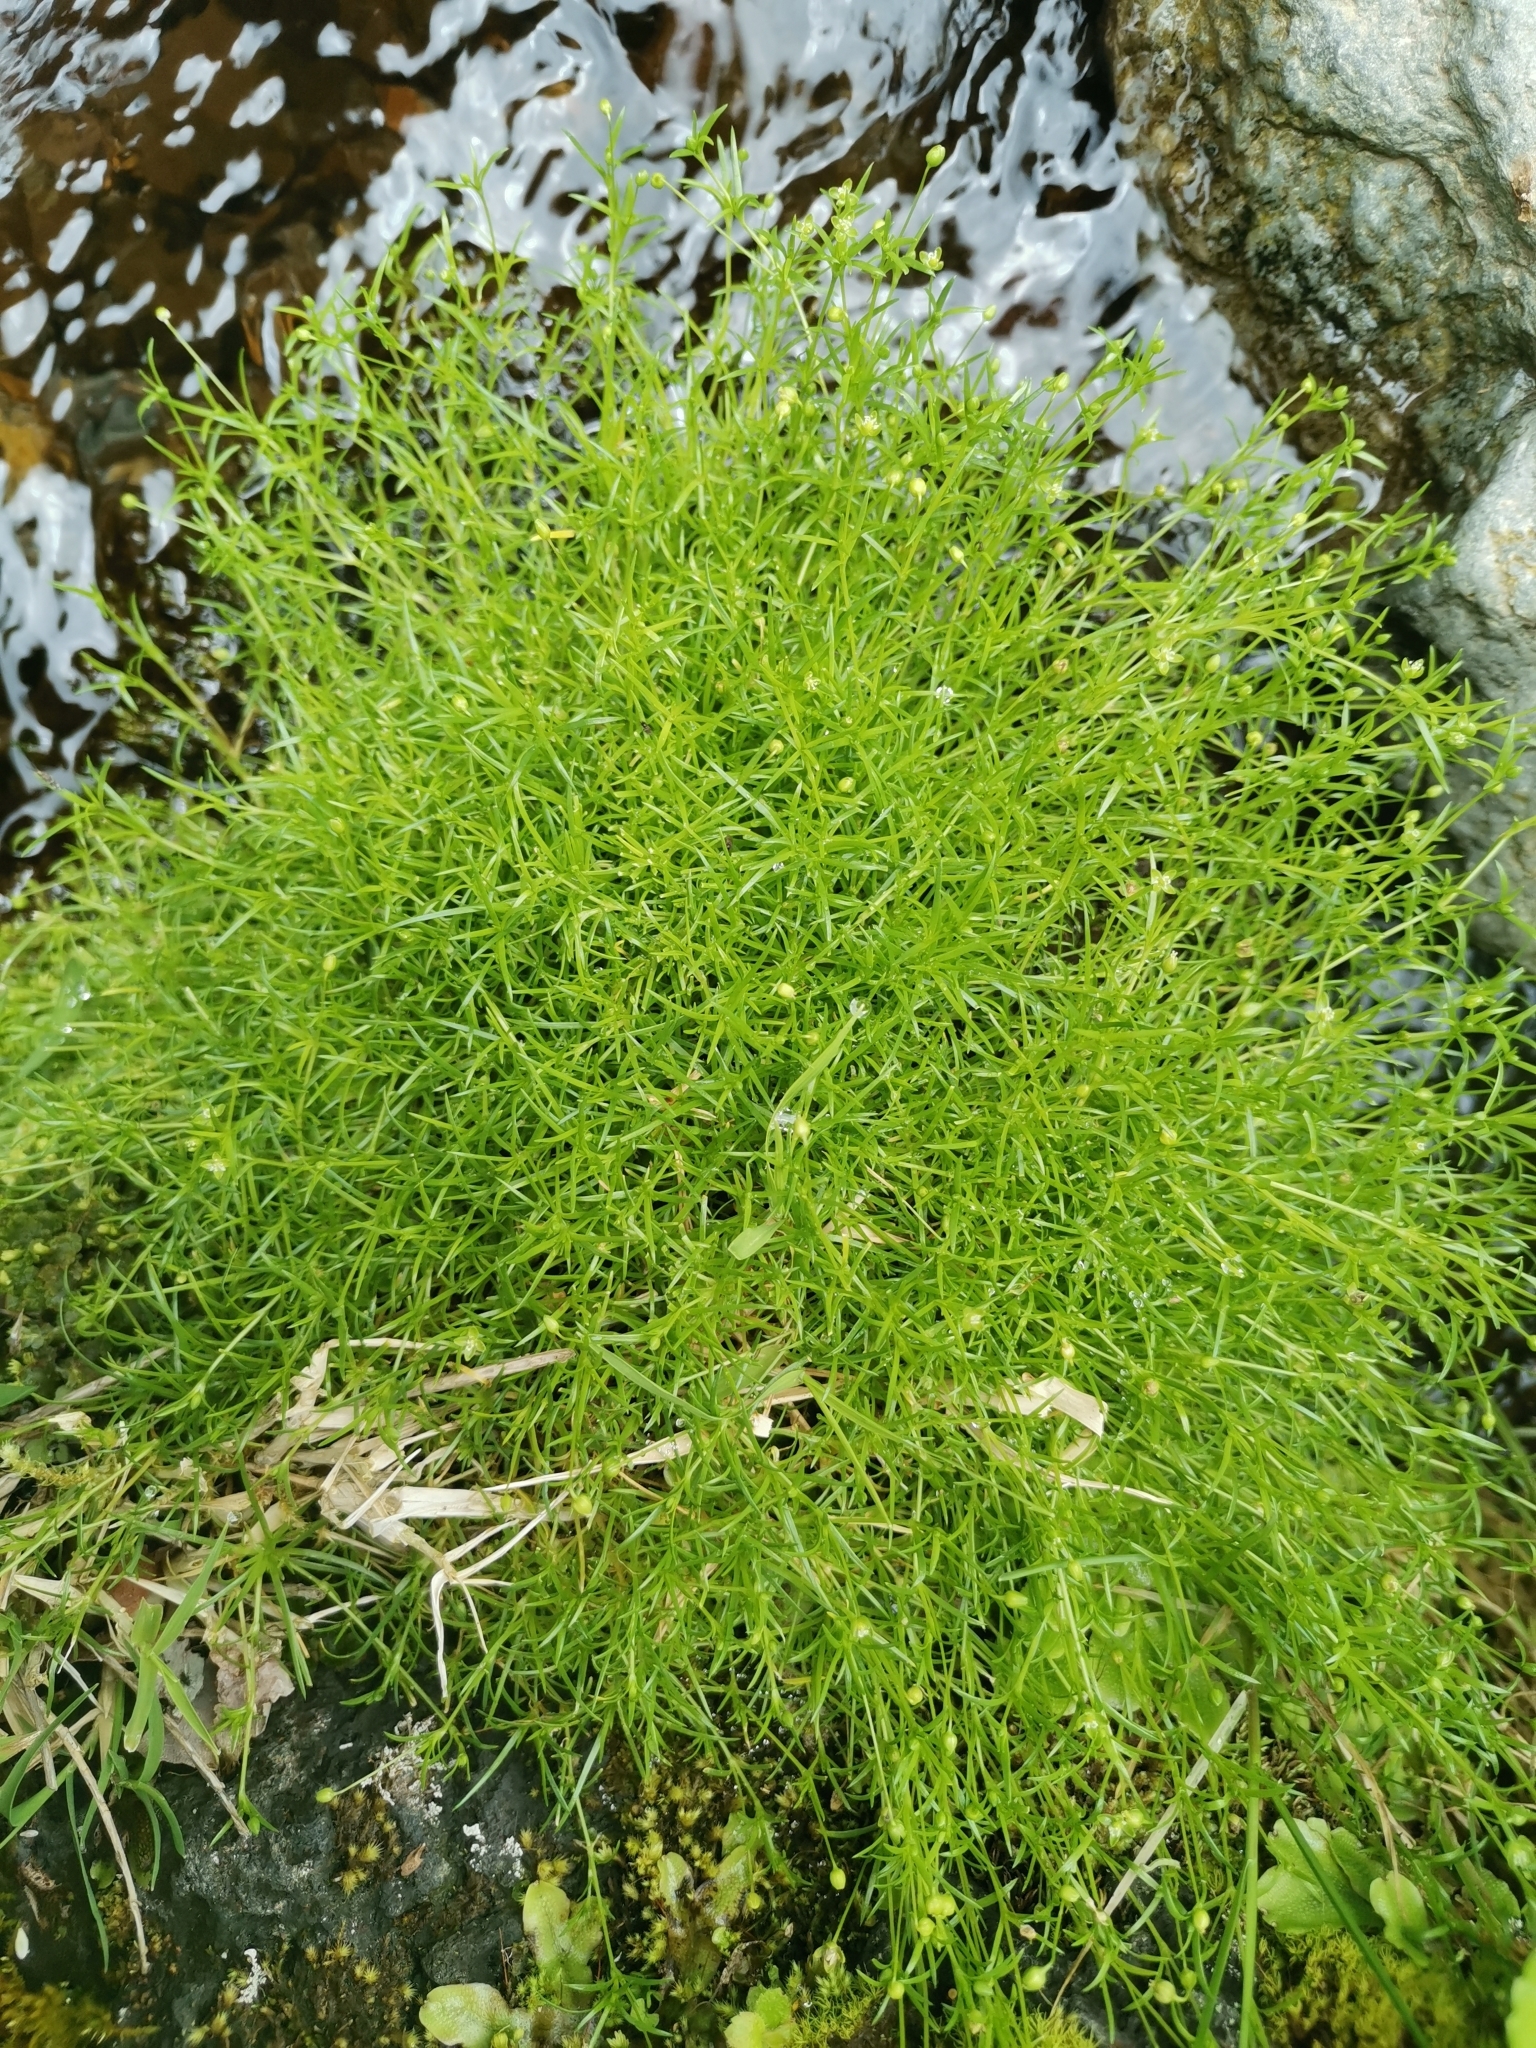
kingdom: Plantae
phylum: Tracheophyta
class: Magnoliopsida
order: Caryophyllales
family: Caryophyllaceae
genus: Sagina
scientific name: Sagina procumbens
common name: Procumbent pearlwort
